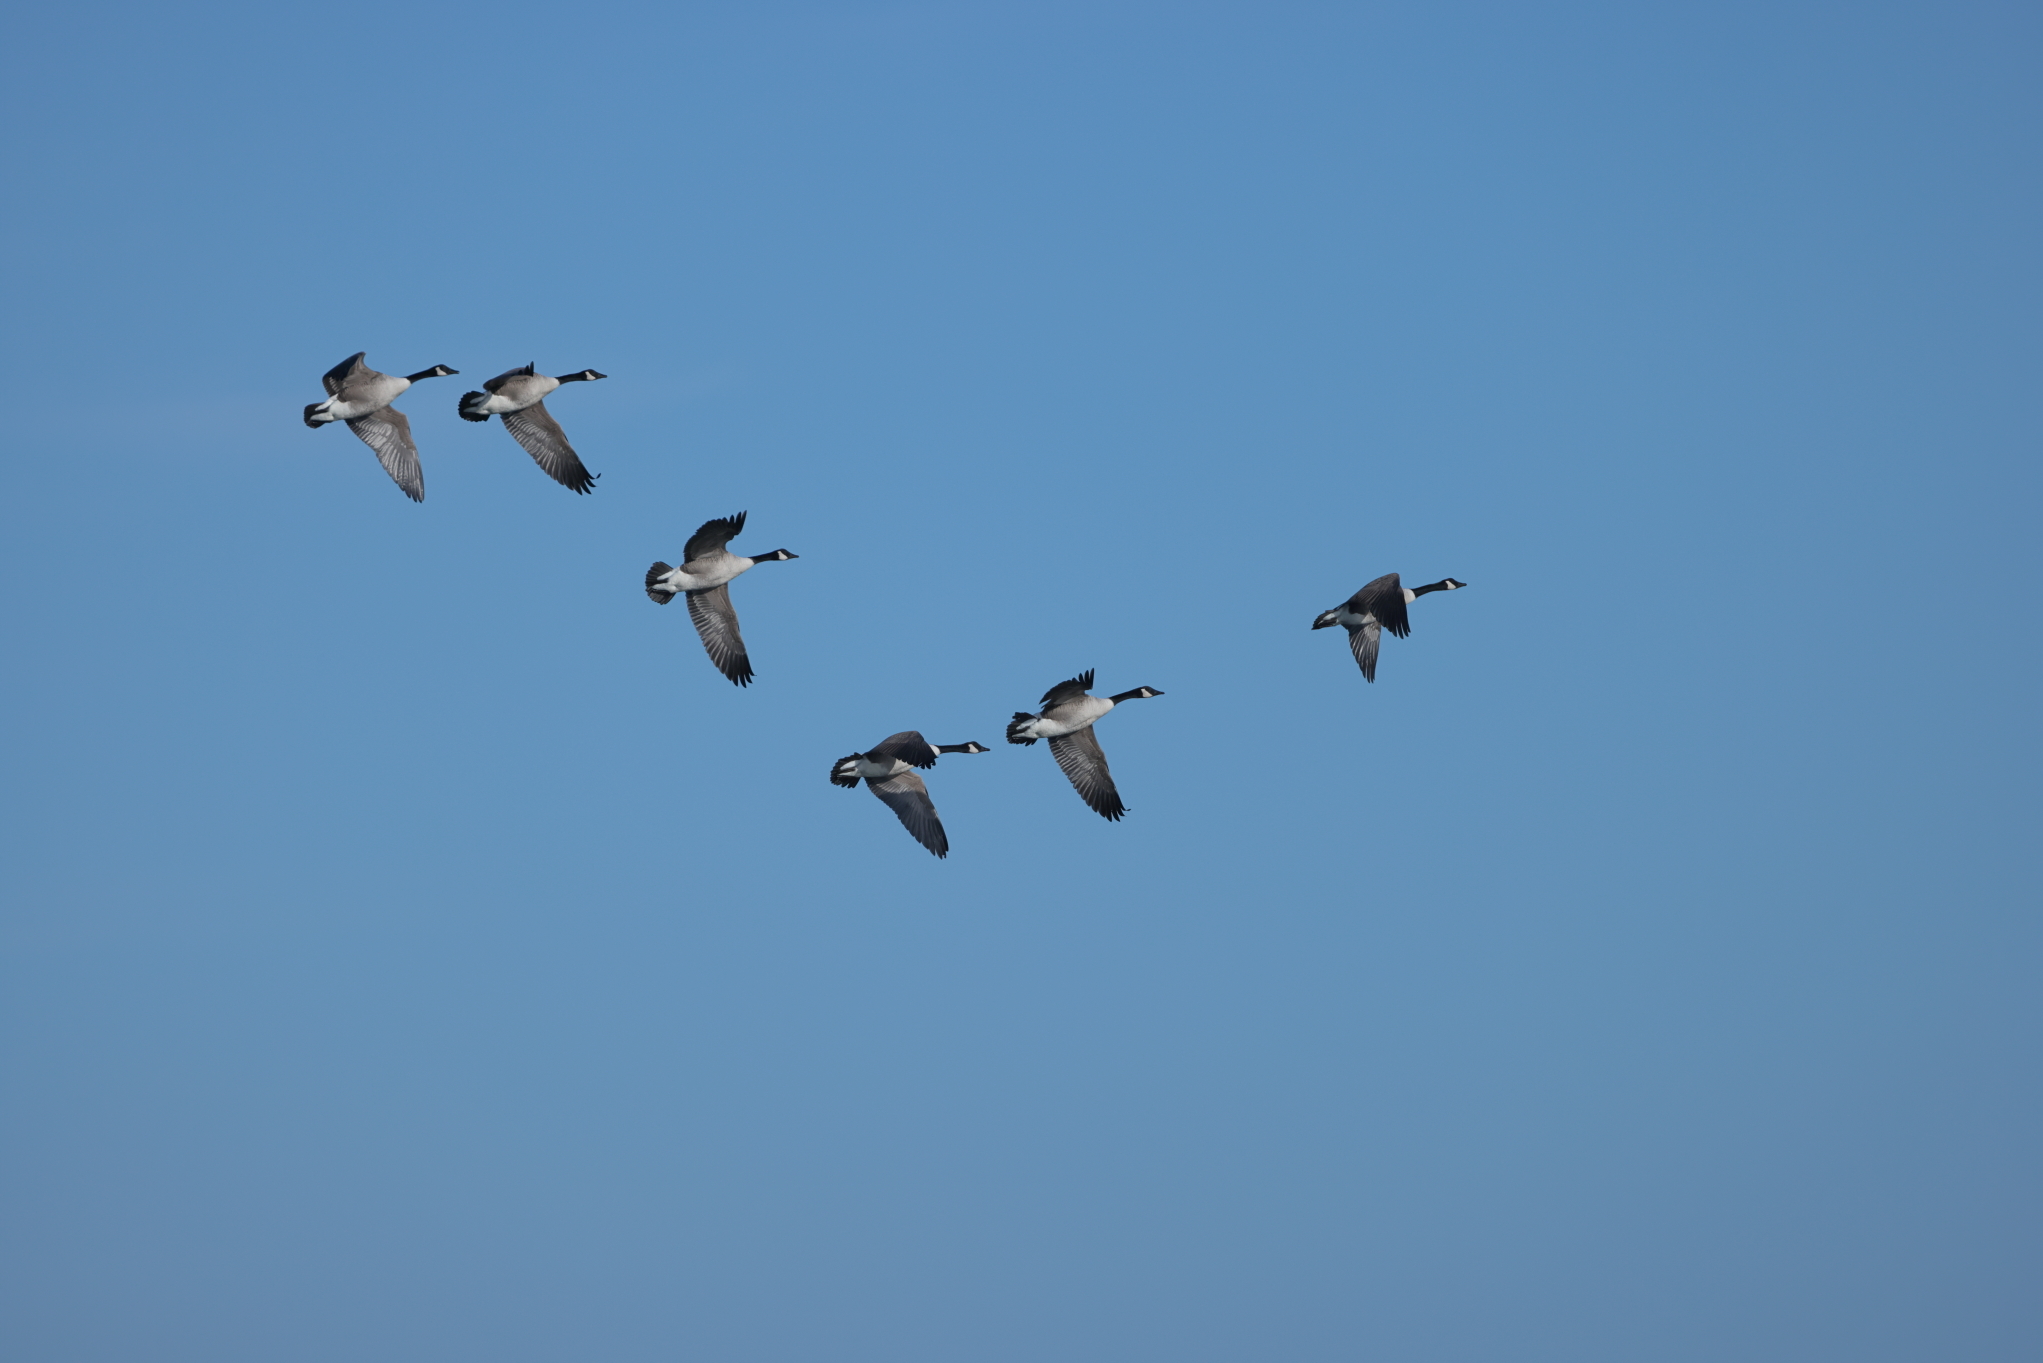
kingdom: Animalia
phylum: Chordata
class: Aves
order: Anseriformes
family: Anatidae
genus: Branta
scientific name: Branta canadensis
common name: Canada goose
